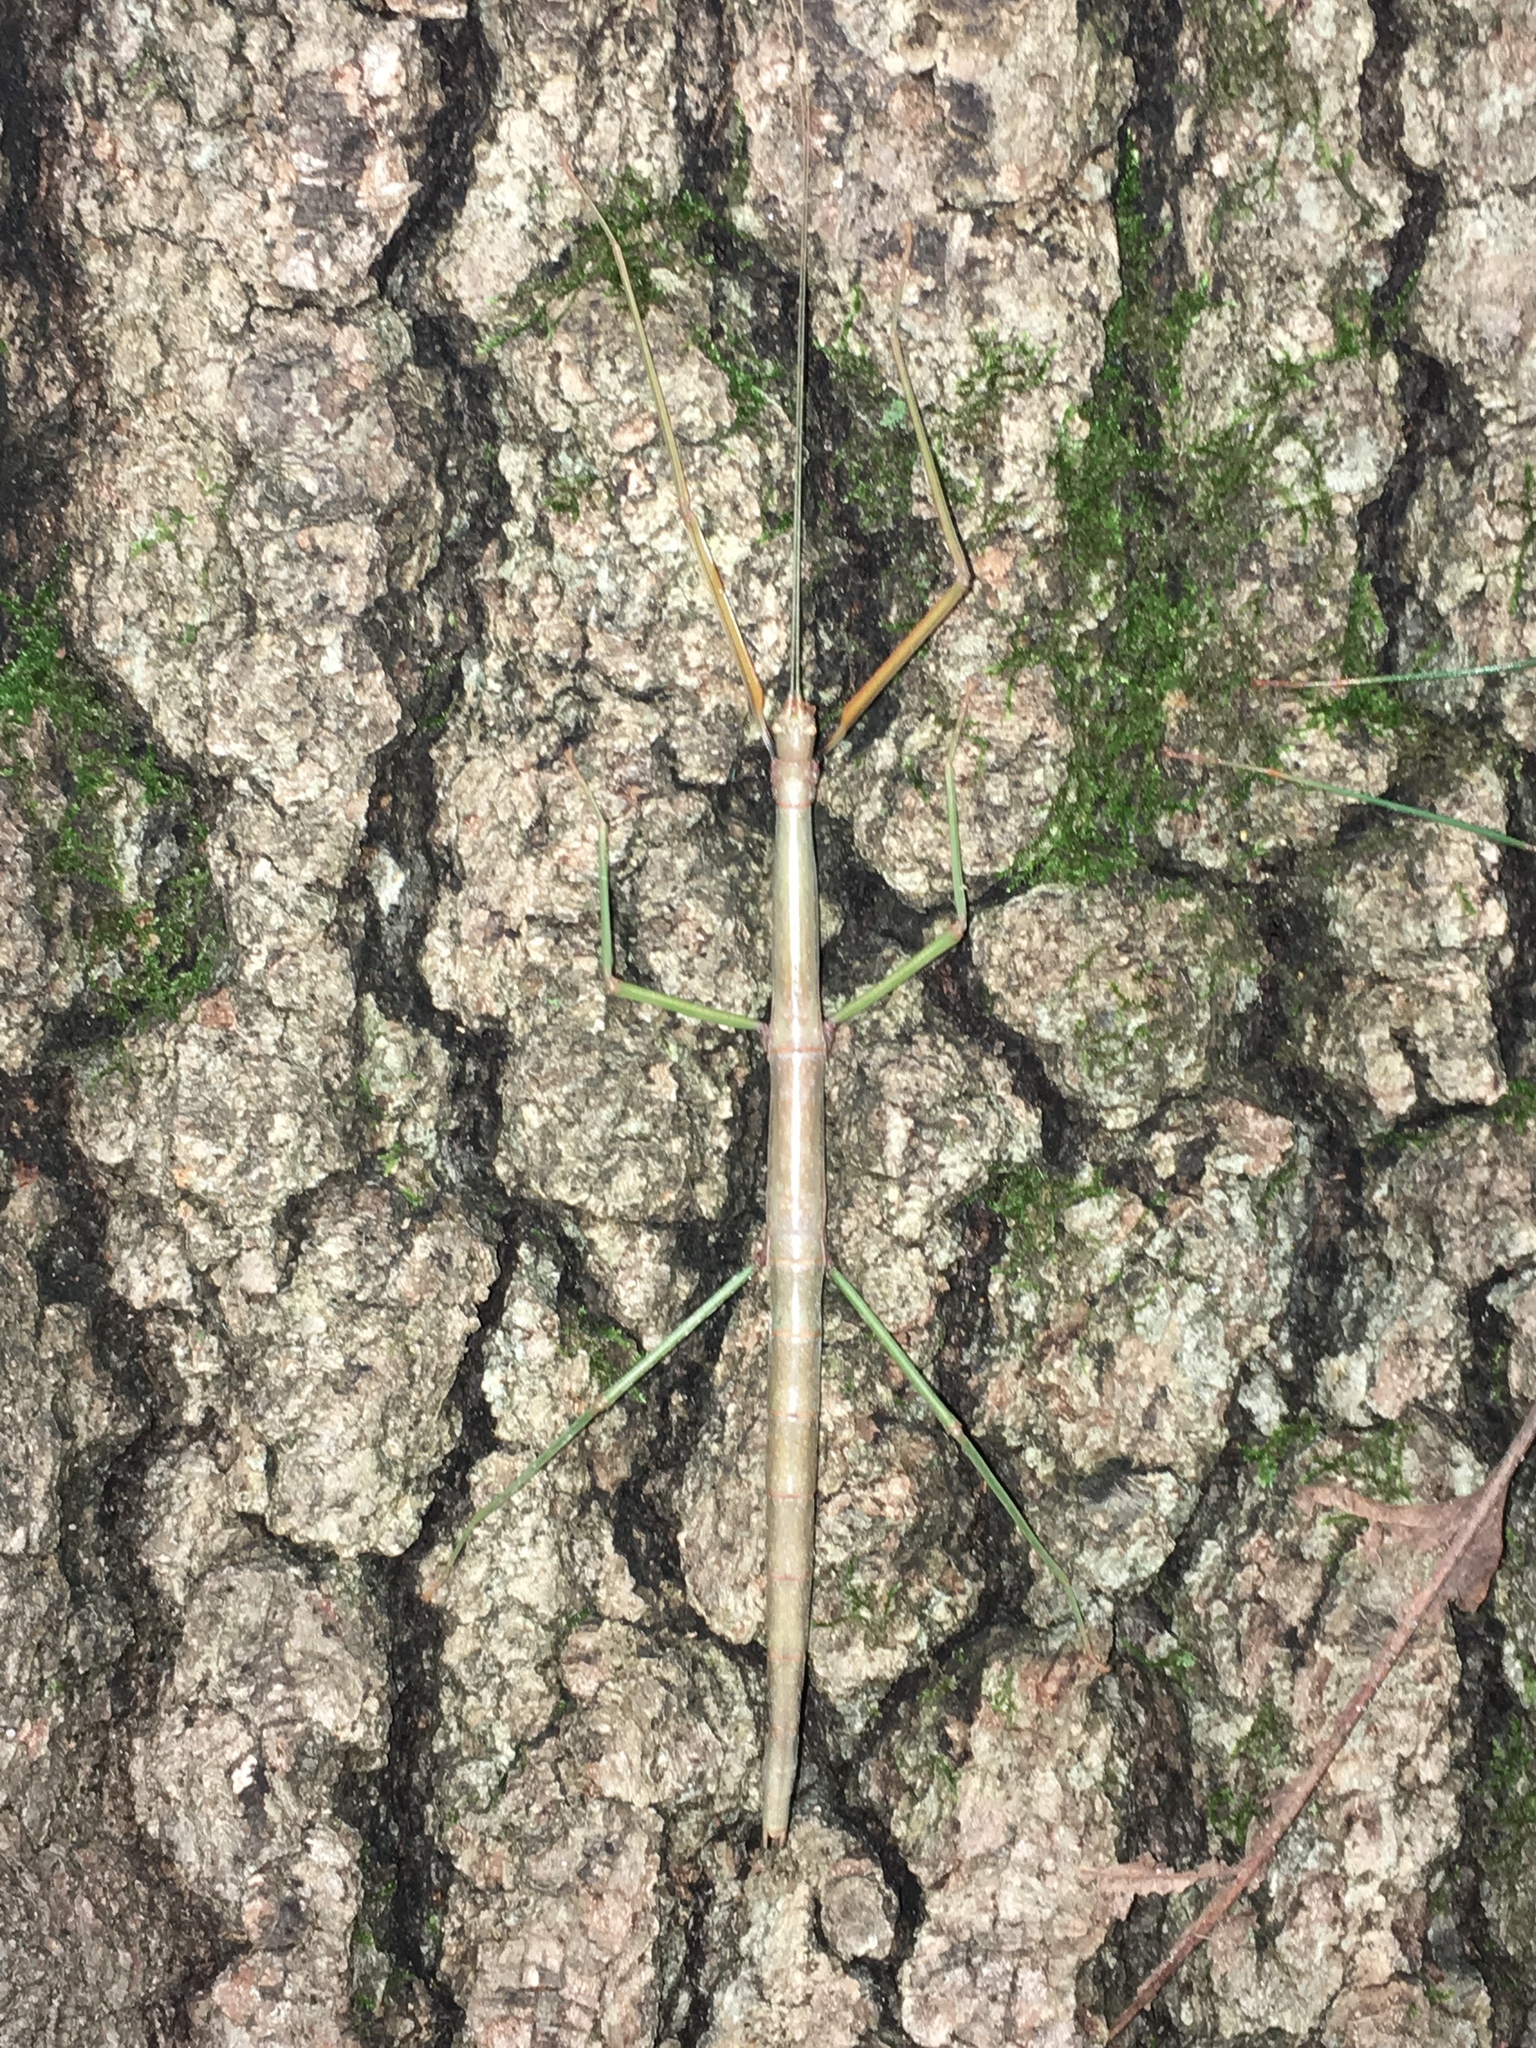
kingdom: Animalia
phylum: Arthropoda
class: Insecta
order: Phasmida
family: Diapheromeridae
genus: Diapheromera
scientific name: Diapheromera femorata
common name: Common american walkingstick
